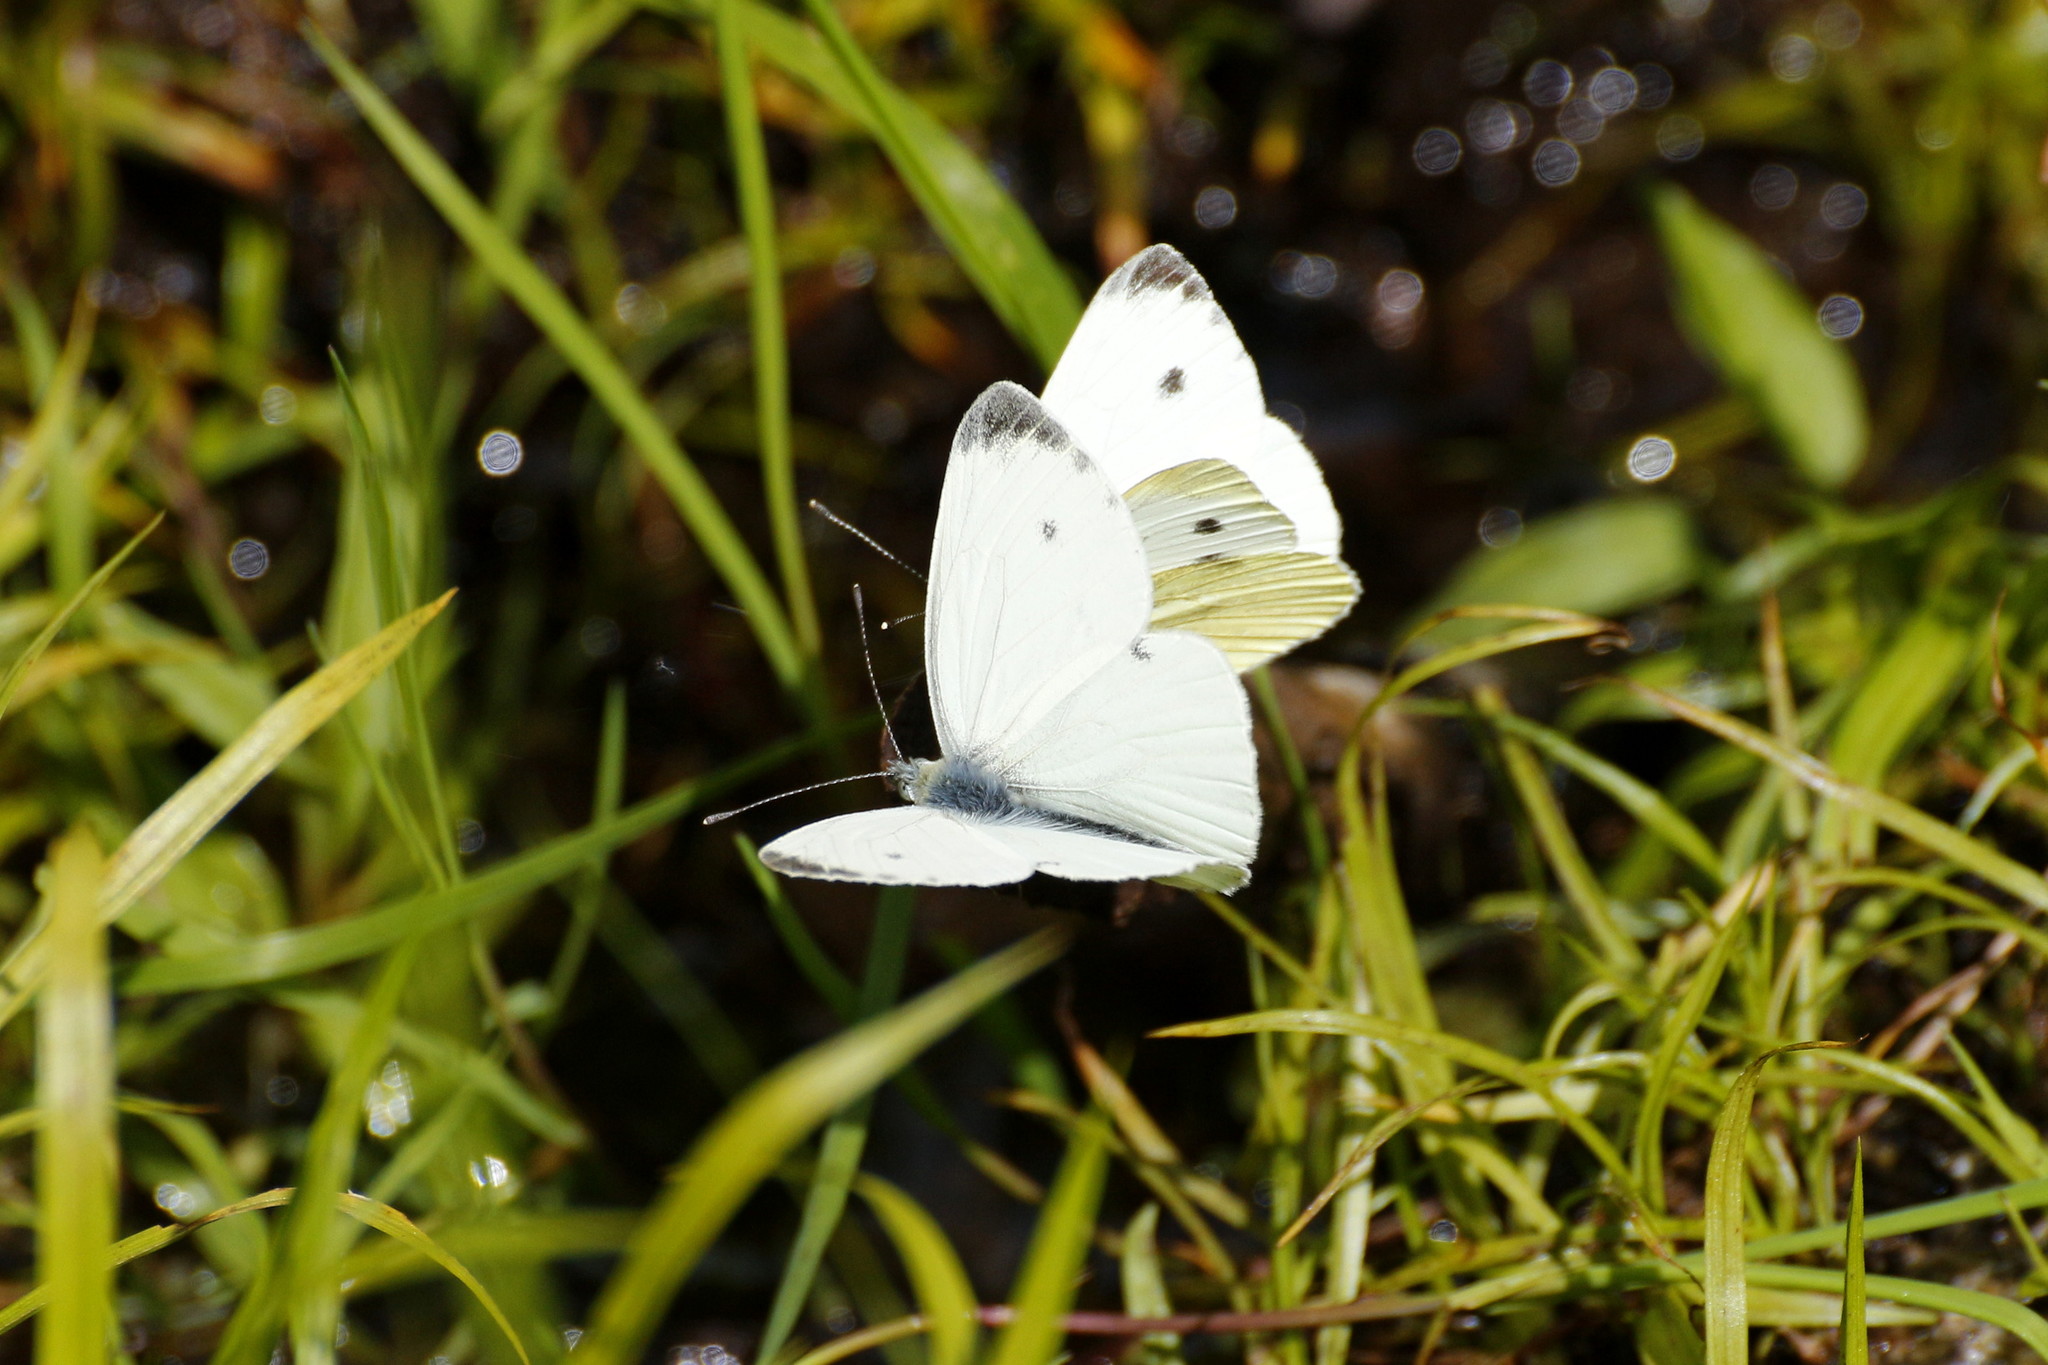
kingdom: Animalia
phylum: Arthropoda
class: Insecta
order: Lepidoptera
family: Pieridae
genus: Pieris
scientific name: Pieris napi
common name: Green-veined white
